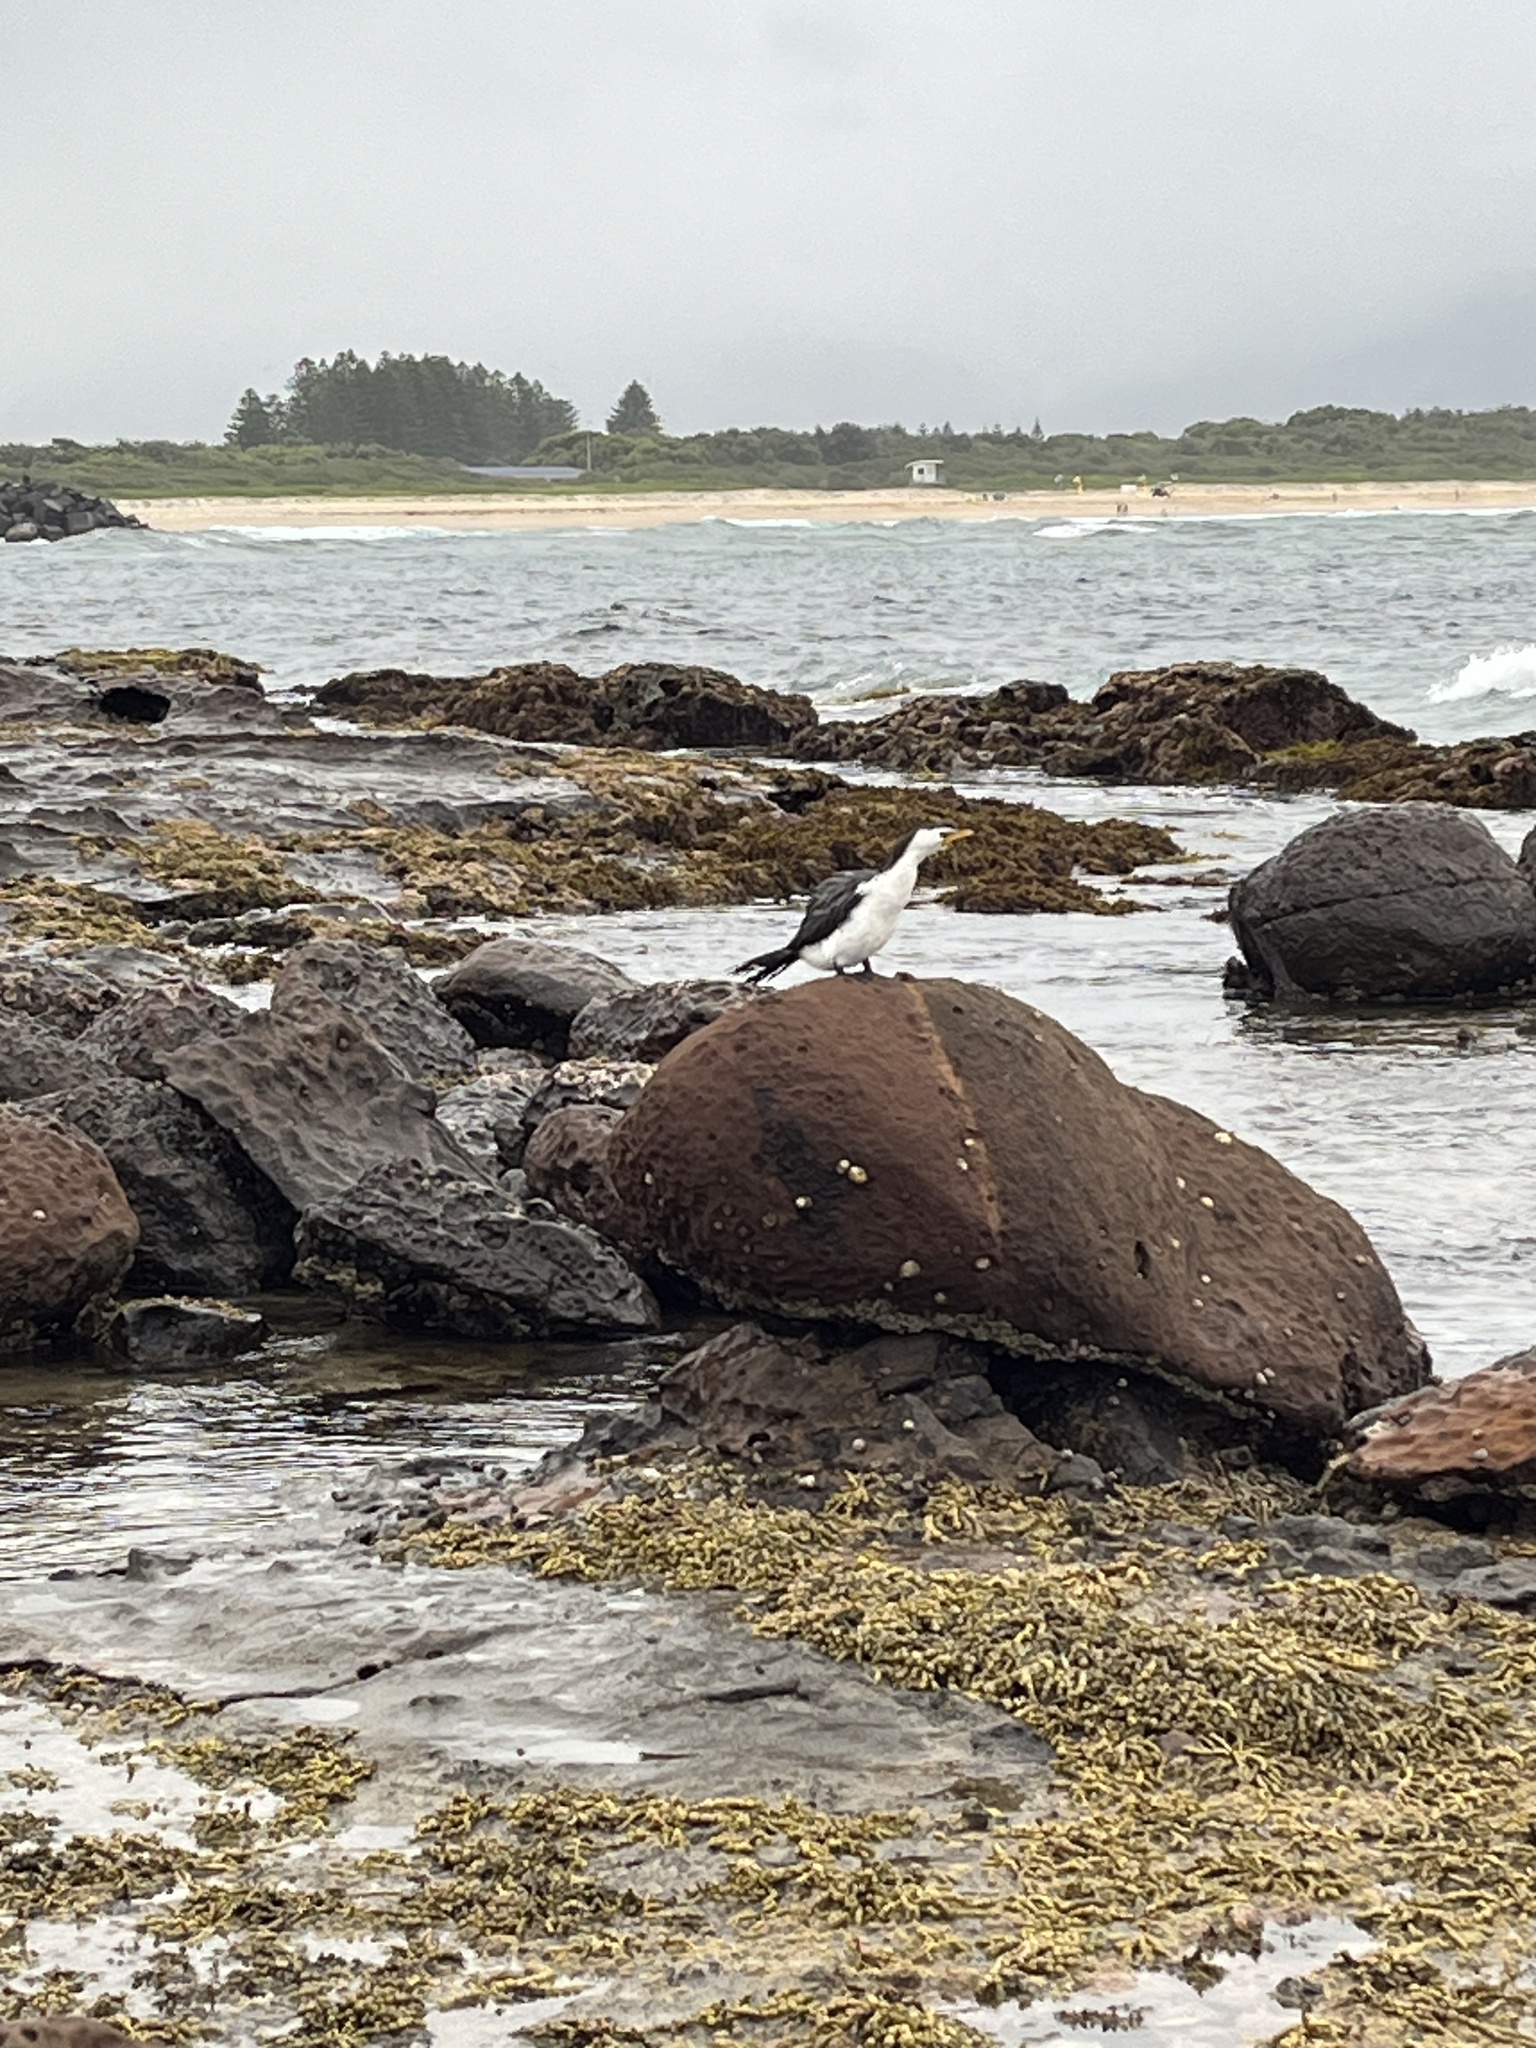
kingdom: Animalia
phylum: Chordata
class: Aves
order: Suliformes
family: Phalacrocoracidae
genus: Microcarbo
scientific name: Microcarbo melanoleucos
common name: Little pied cormorant
